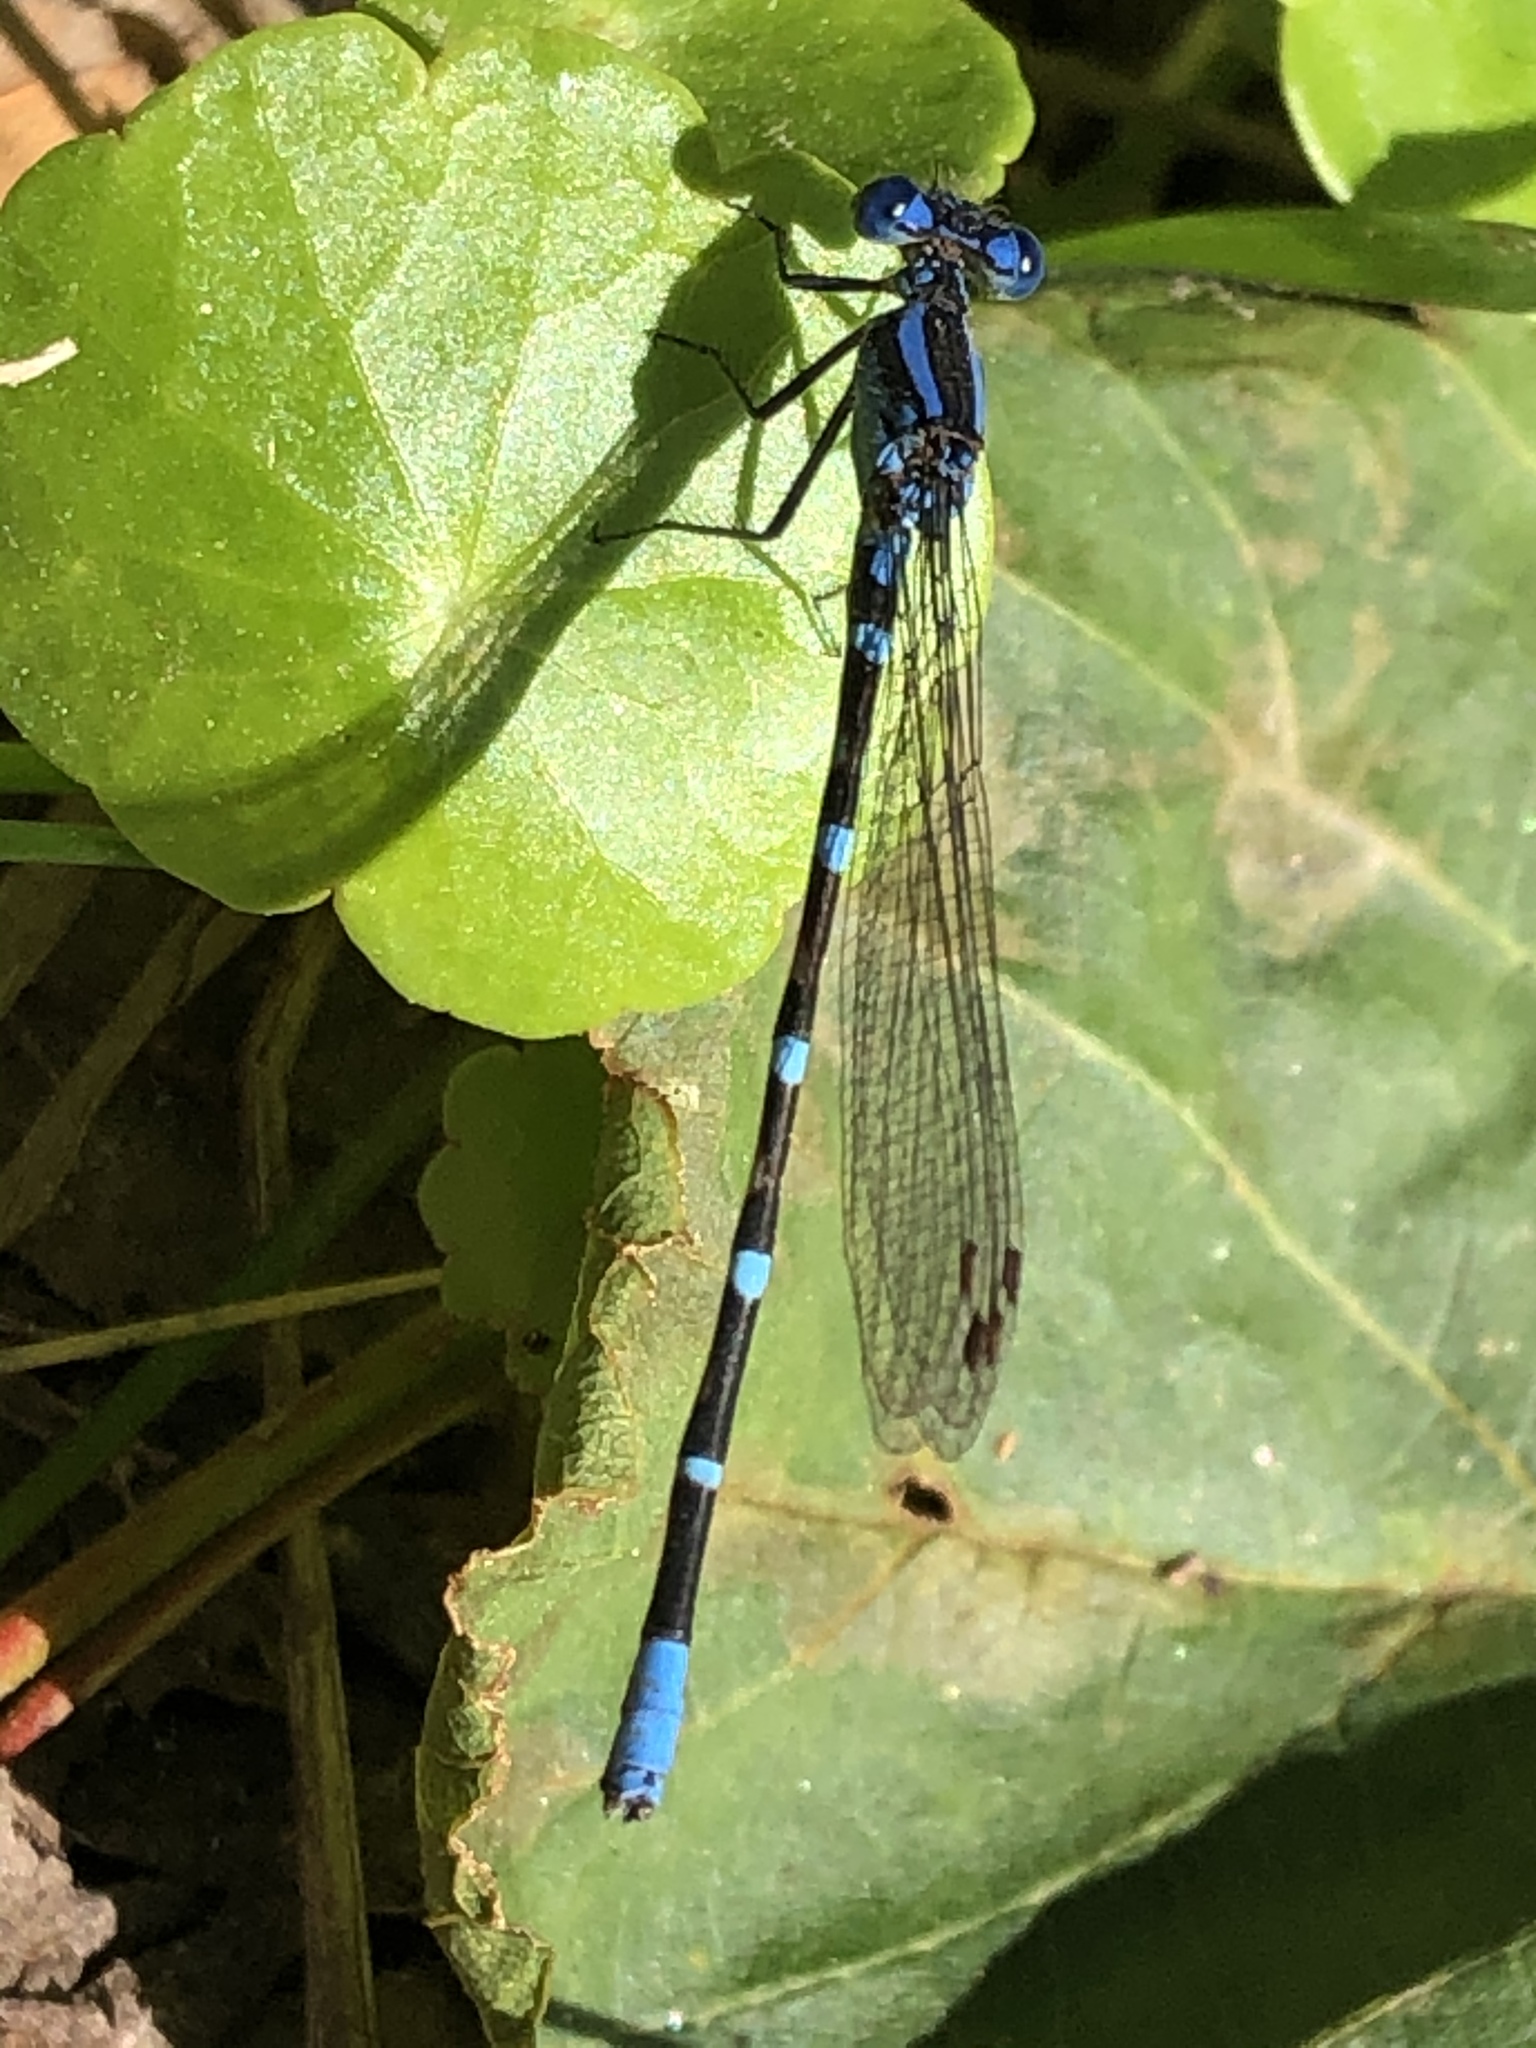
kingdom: Animalia
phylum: Arthropoda
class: Insecta
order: Odonata
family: Coenagrionidae
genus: Argia
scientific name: Argia sedula
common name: Blue-ringed dancer
